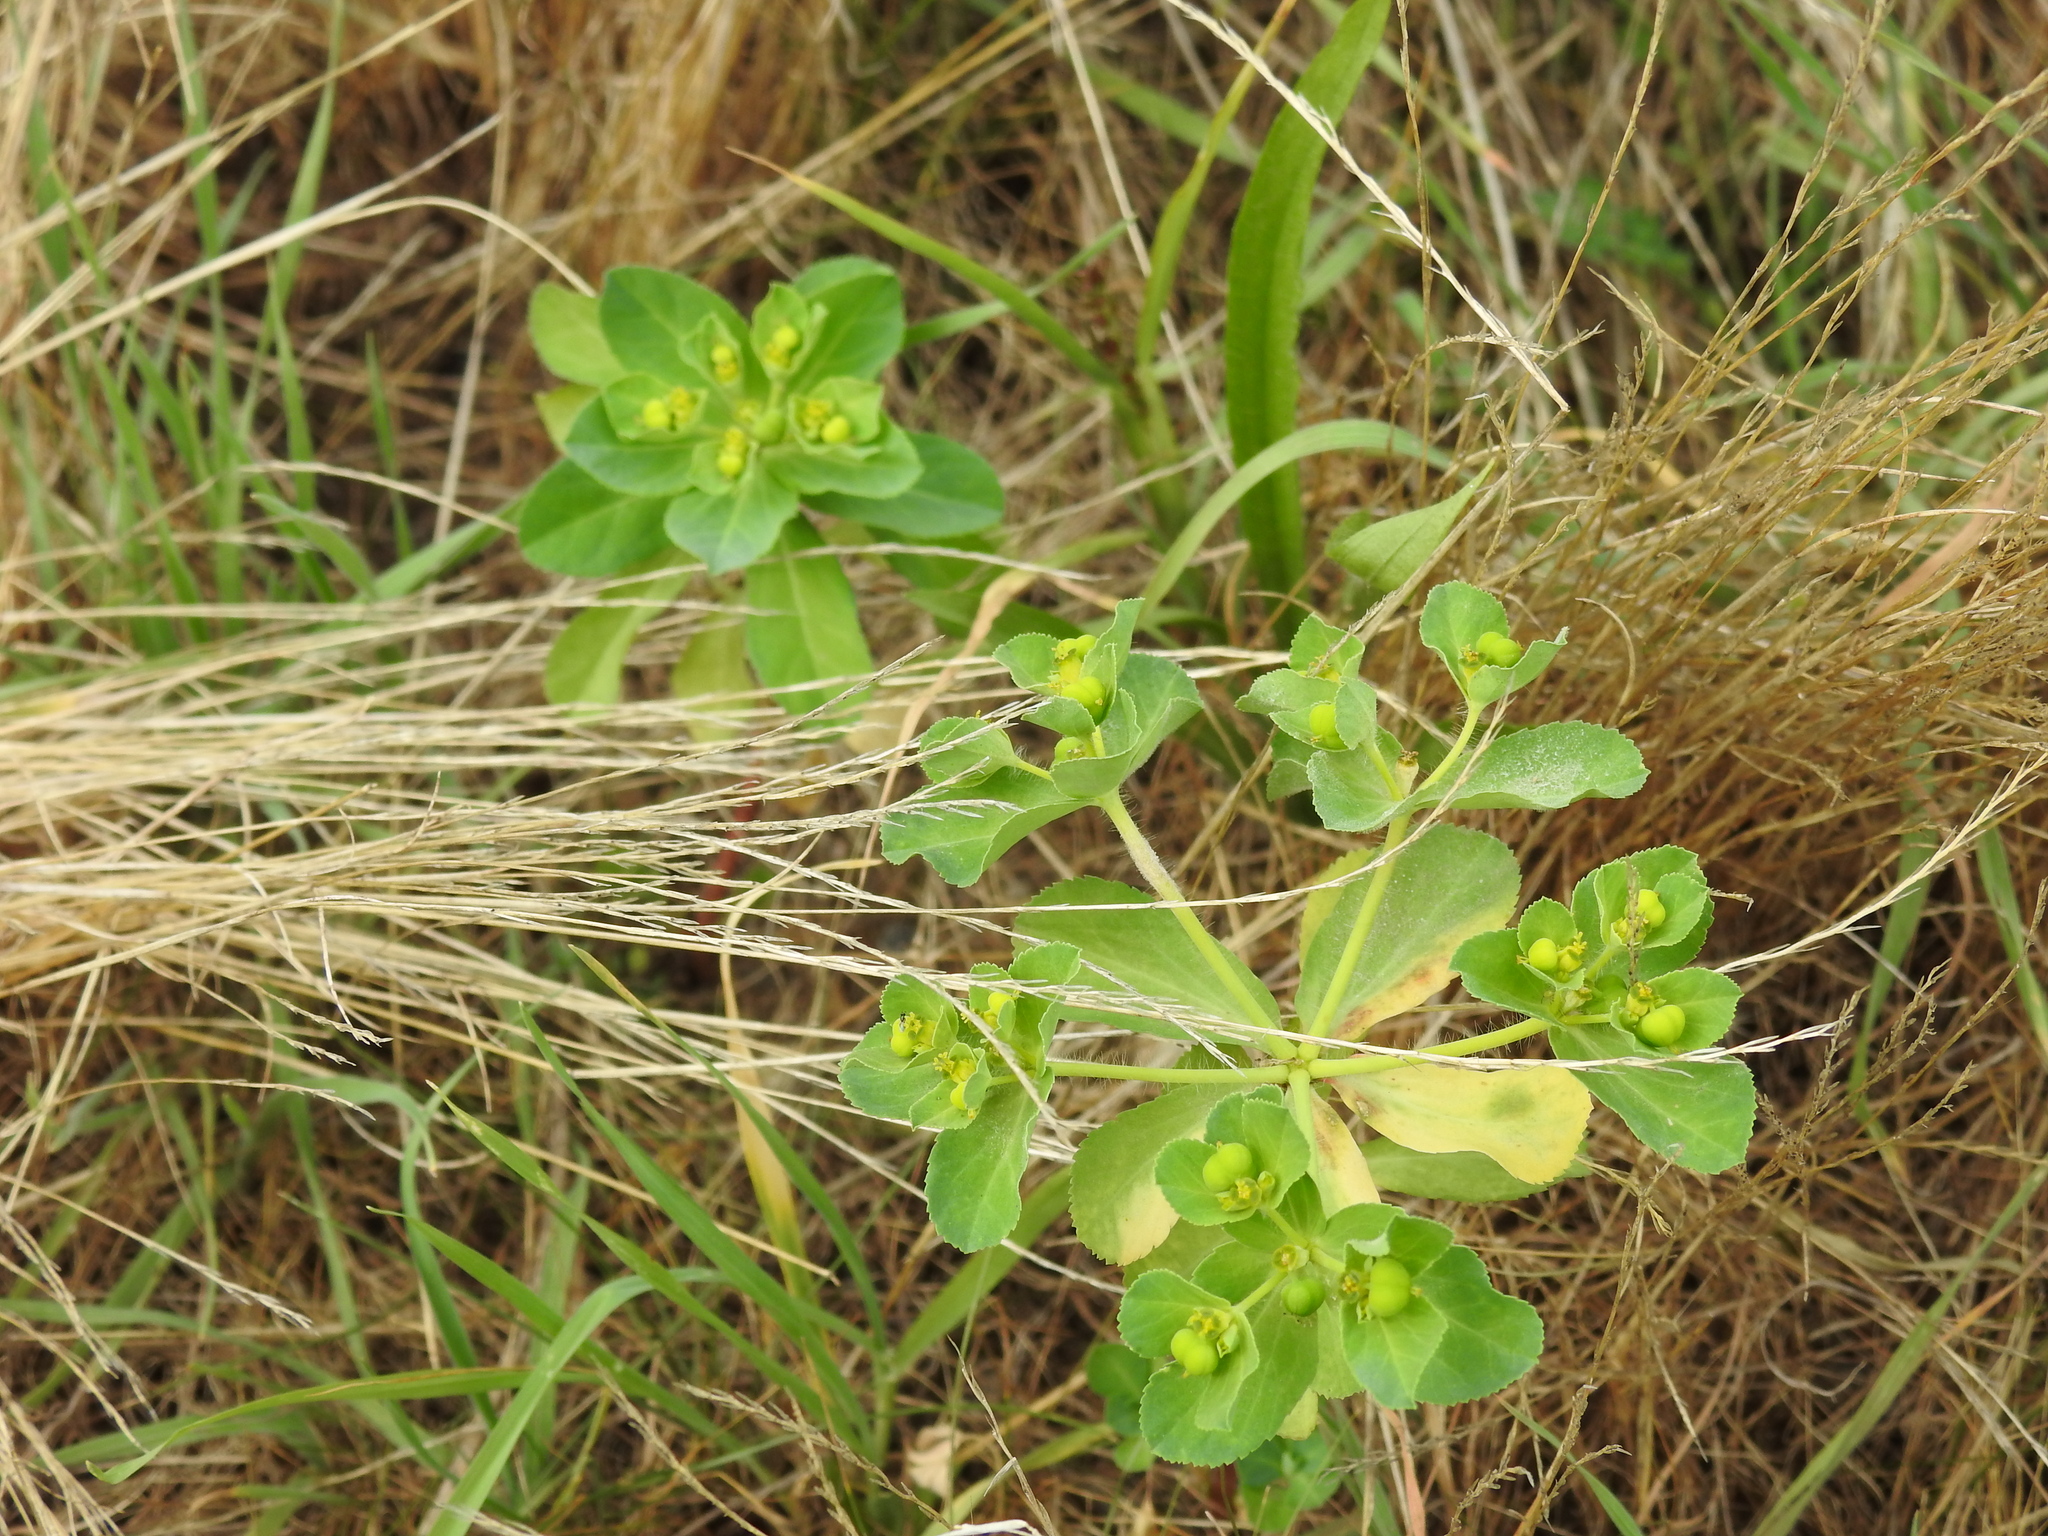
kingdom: Plantae
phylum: Tracheophyta
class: Magnoliopsida
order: Malpighiales
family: Euphorbiaceae
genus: Euphorbia
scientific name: Euphorbia helioscopia
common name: Sun spurge
